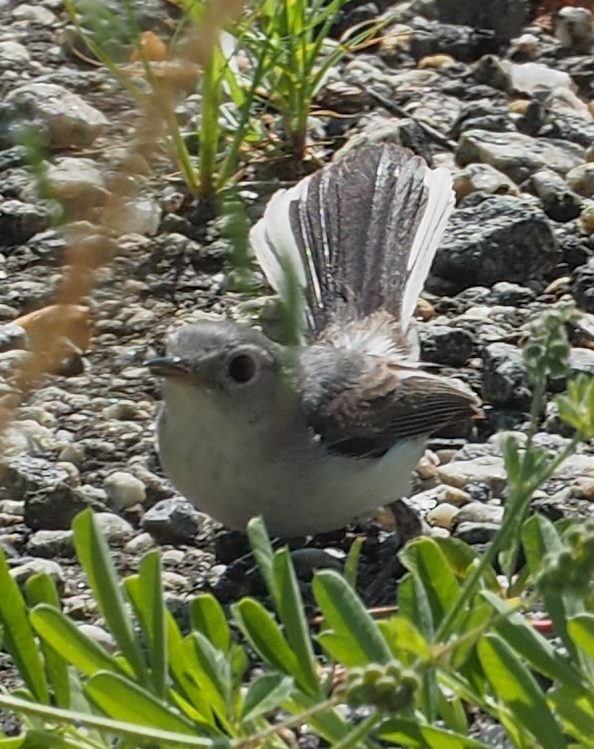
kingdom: Animalia
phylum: Chordata
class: Aves
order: Passeriformes
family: Polioptilidae
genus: Polioptila
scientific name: Polioptila caerulea
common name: Blue-gray gnatcatcher
